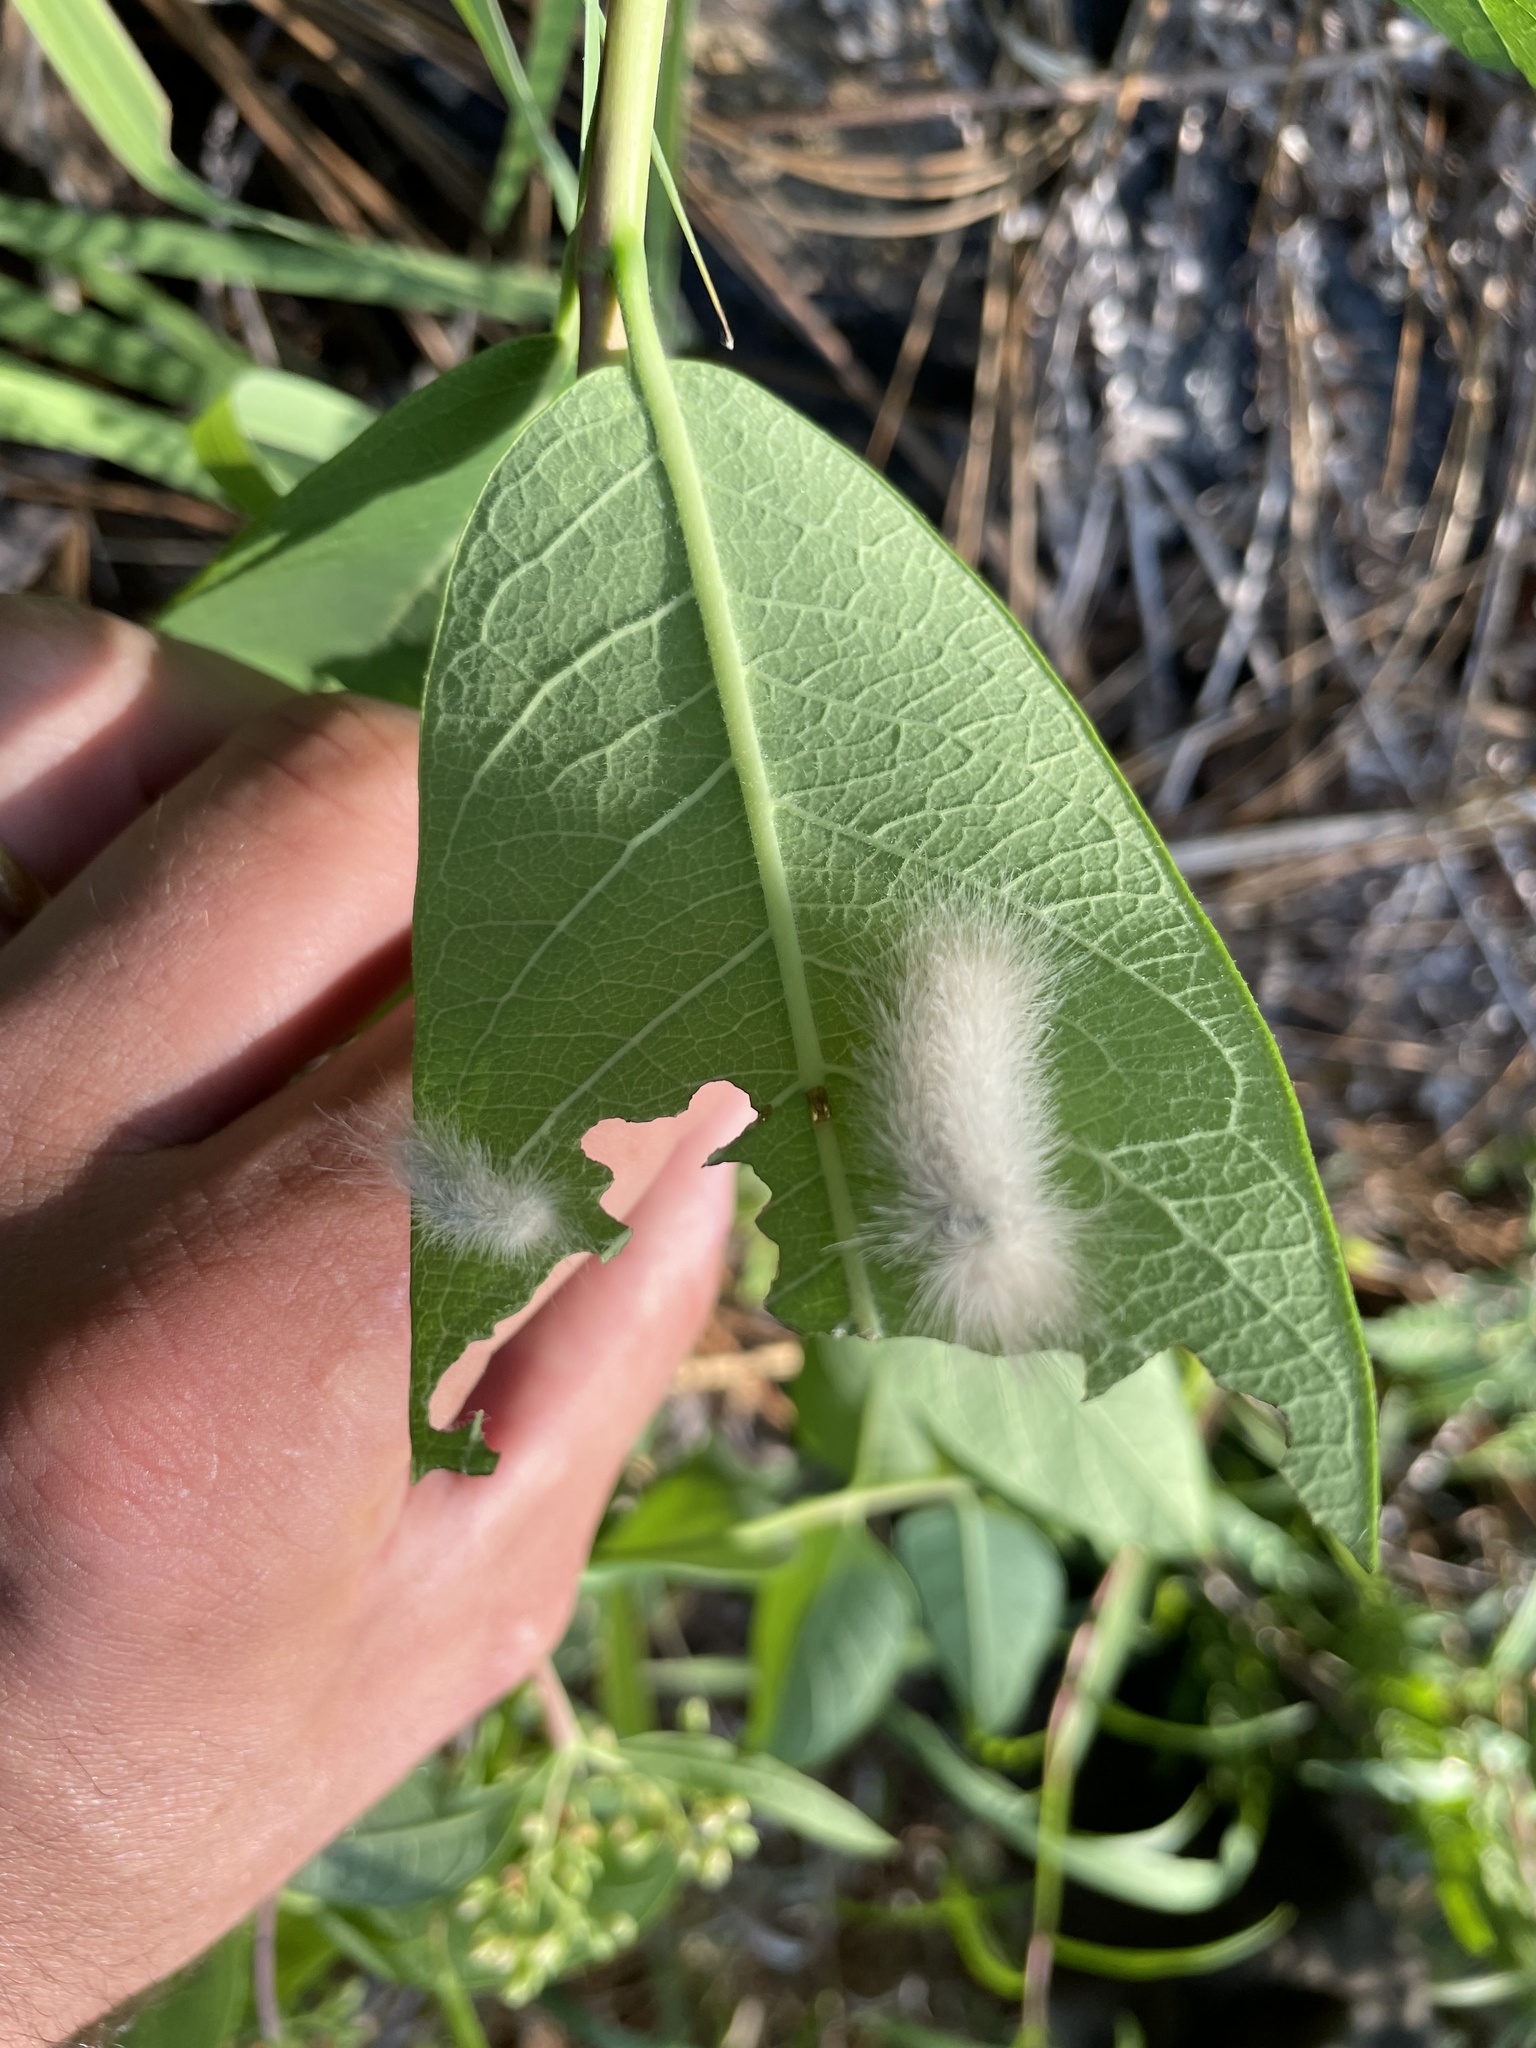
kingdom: Animalia
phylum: Arthropoda
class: Insecta
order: Lepidoptera
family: Erebidae
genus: Cycnia
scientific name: Cycnia tenera
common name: Delicate cycnia moth
